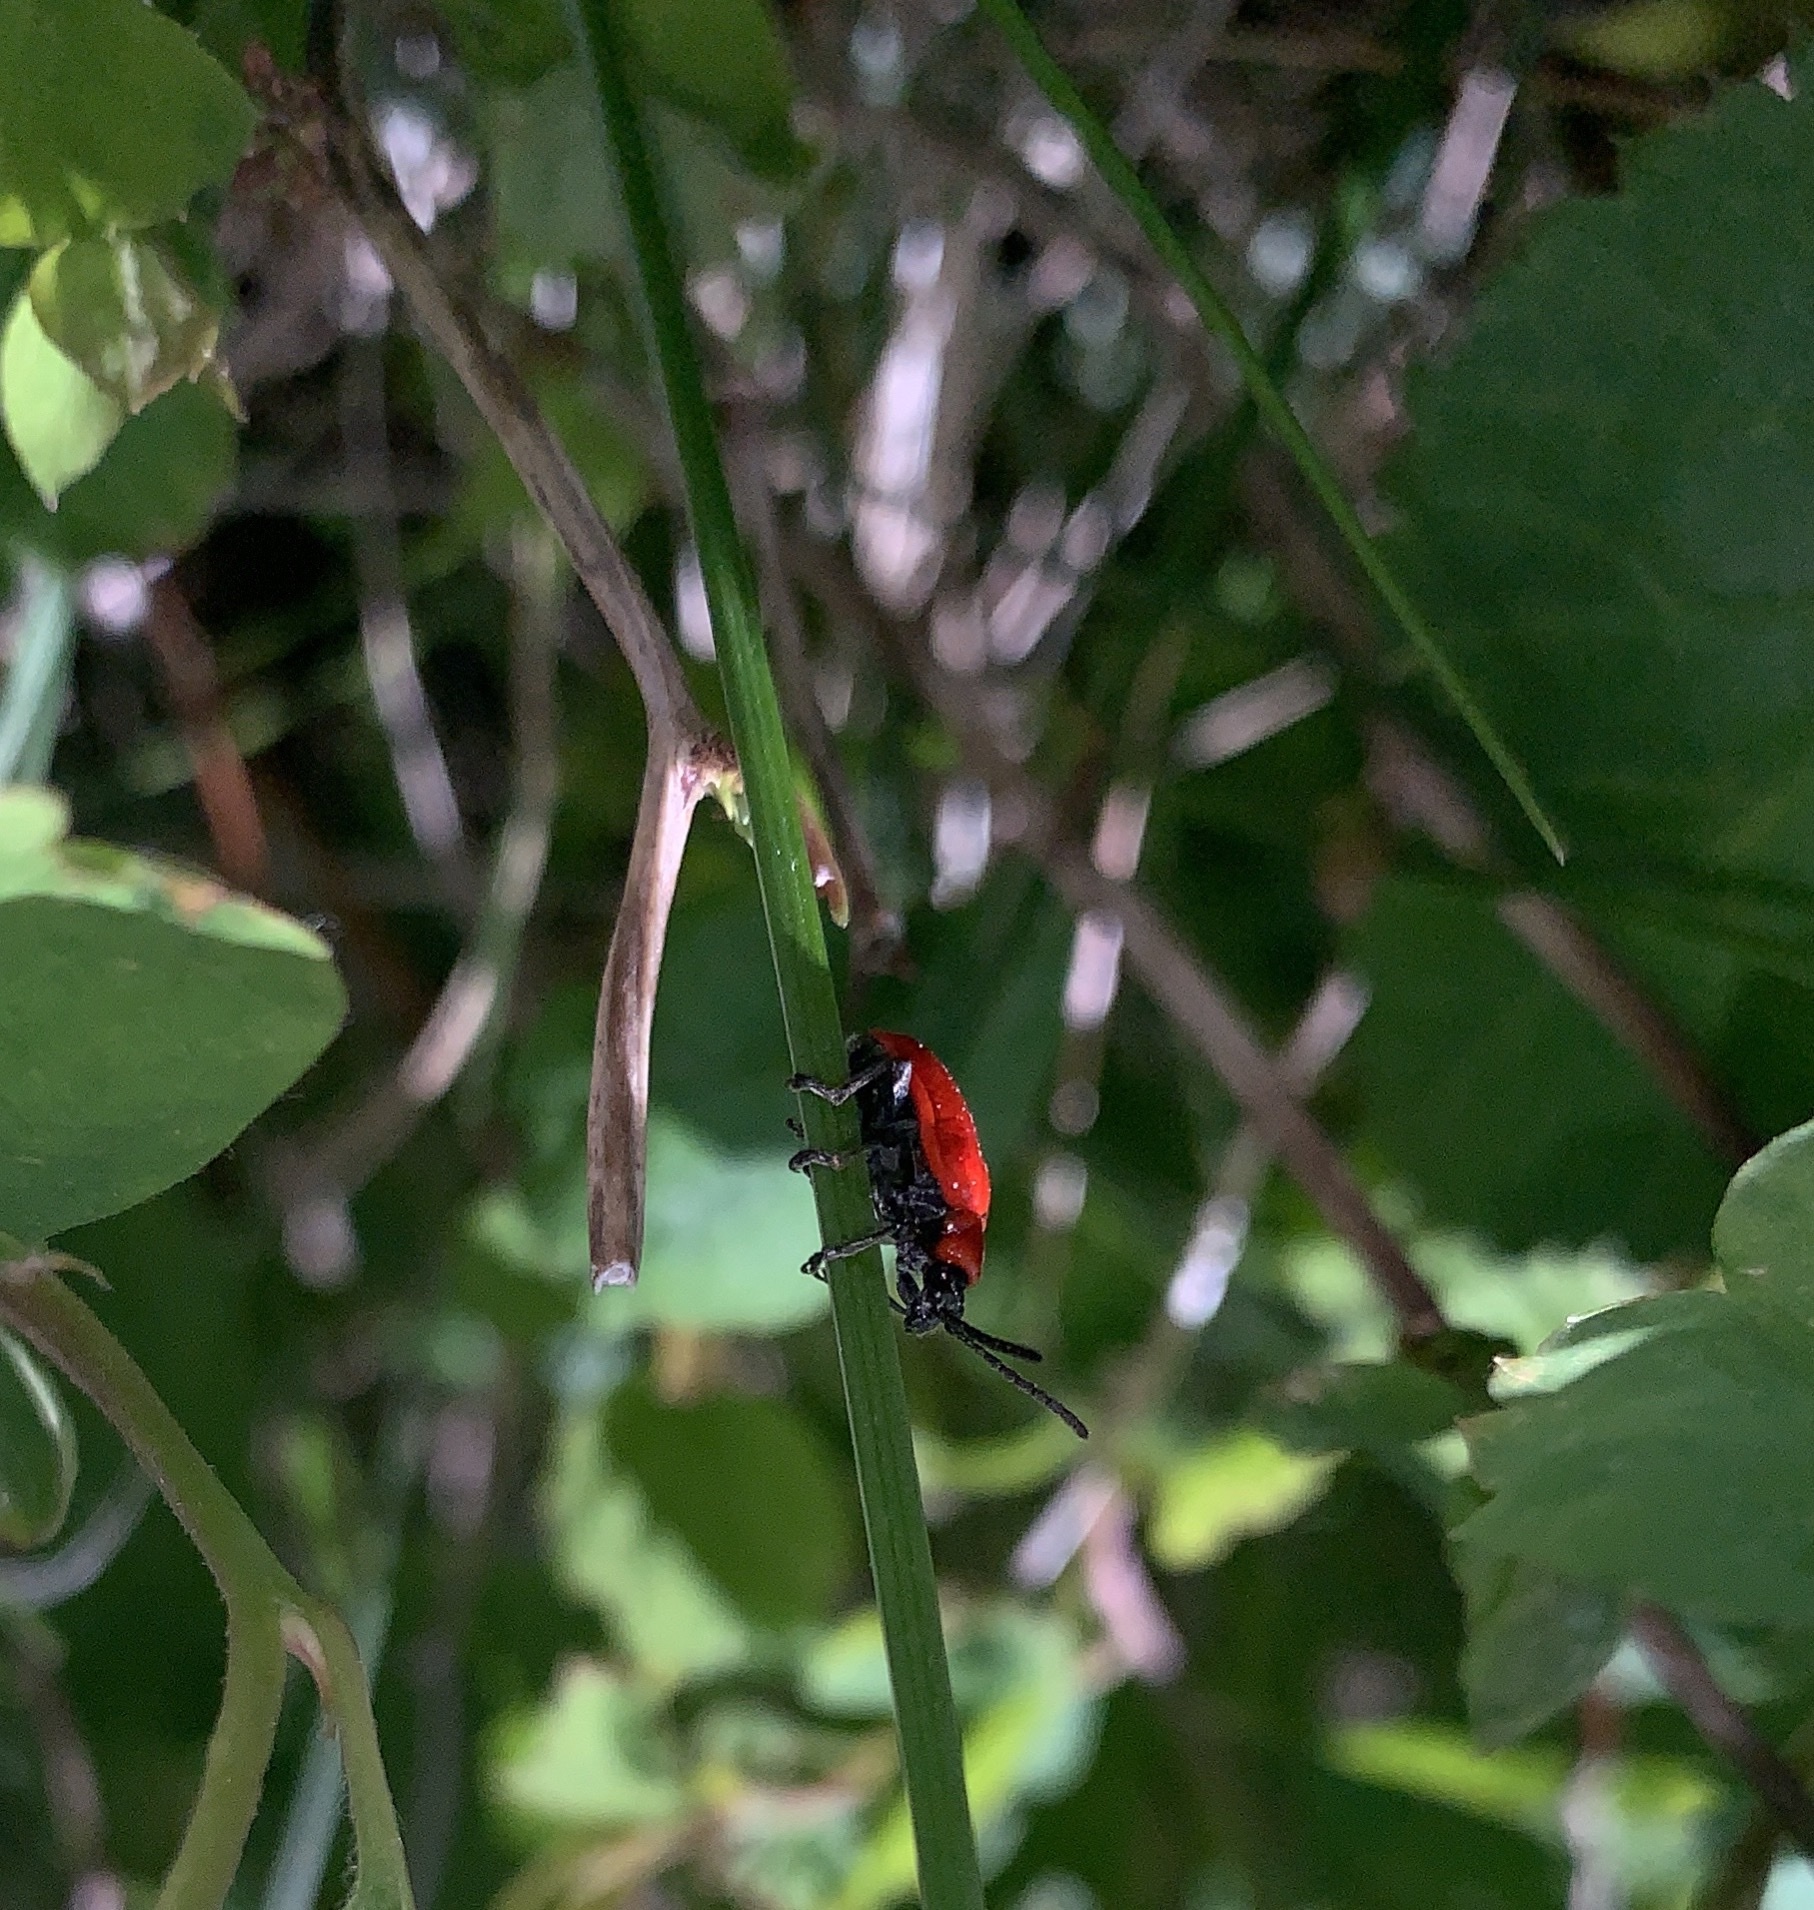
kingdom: Animalia
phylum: Arthropoda
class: Insecta
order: Coleoptera
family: Chrysomelidae
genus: Lilioceris
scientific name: Lilioceris lilii
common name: Lily beetle
